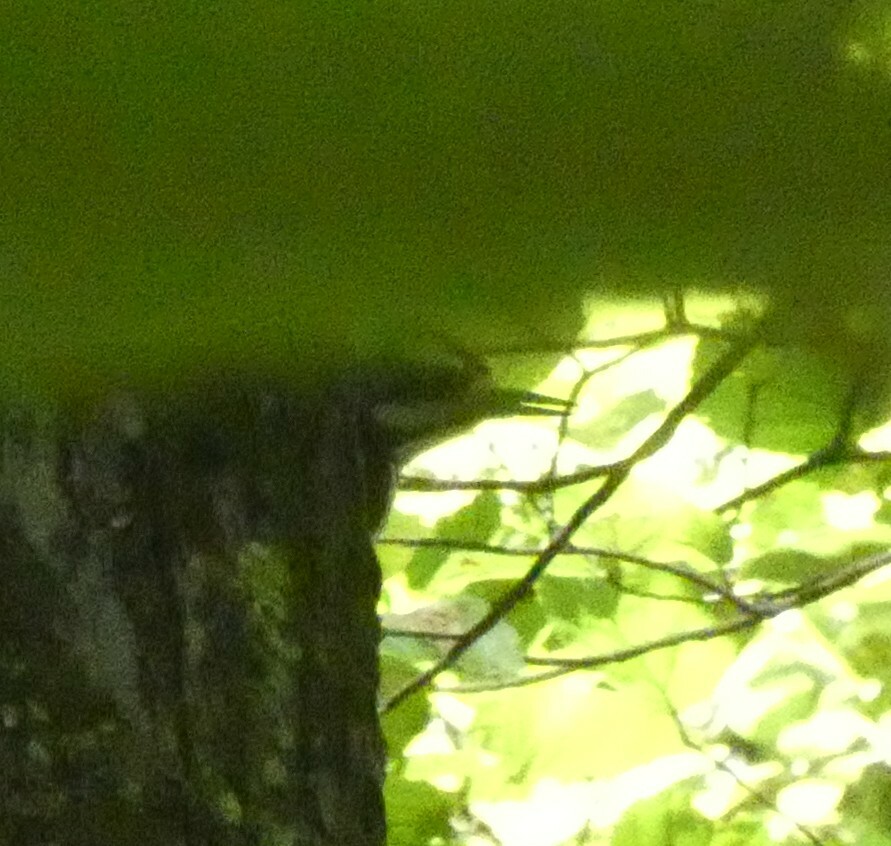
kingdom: Animalia
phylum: Chordata
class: Aves
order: Piciformes
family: Picidae
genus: Leuconotopicus
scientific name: Leuconotopicus villosus
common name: Hairy woodpecker
